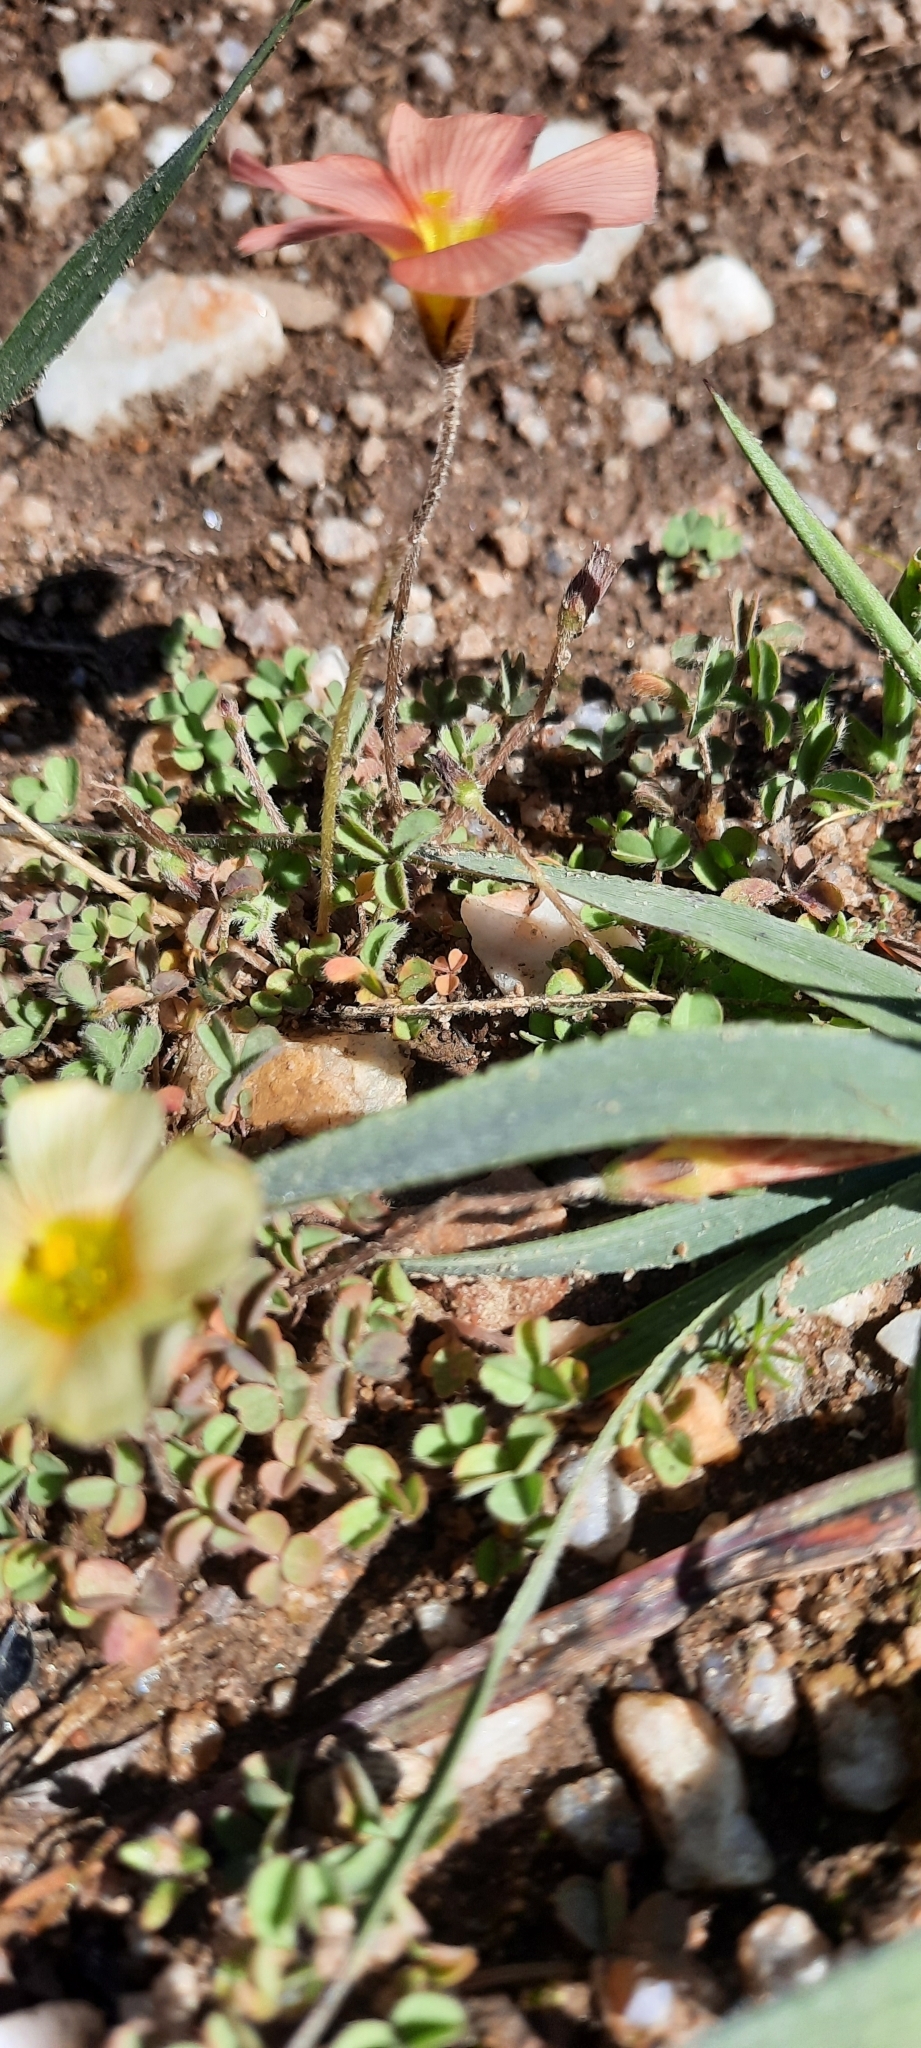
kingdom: Plantae
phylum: Tracheophyta
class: Magnoliopsida
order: Oxalidales
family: Oxalidaceae
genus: Oxalis
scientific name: Oxalis obtusa
